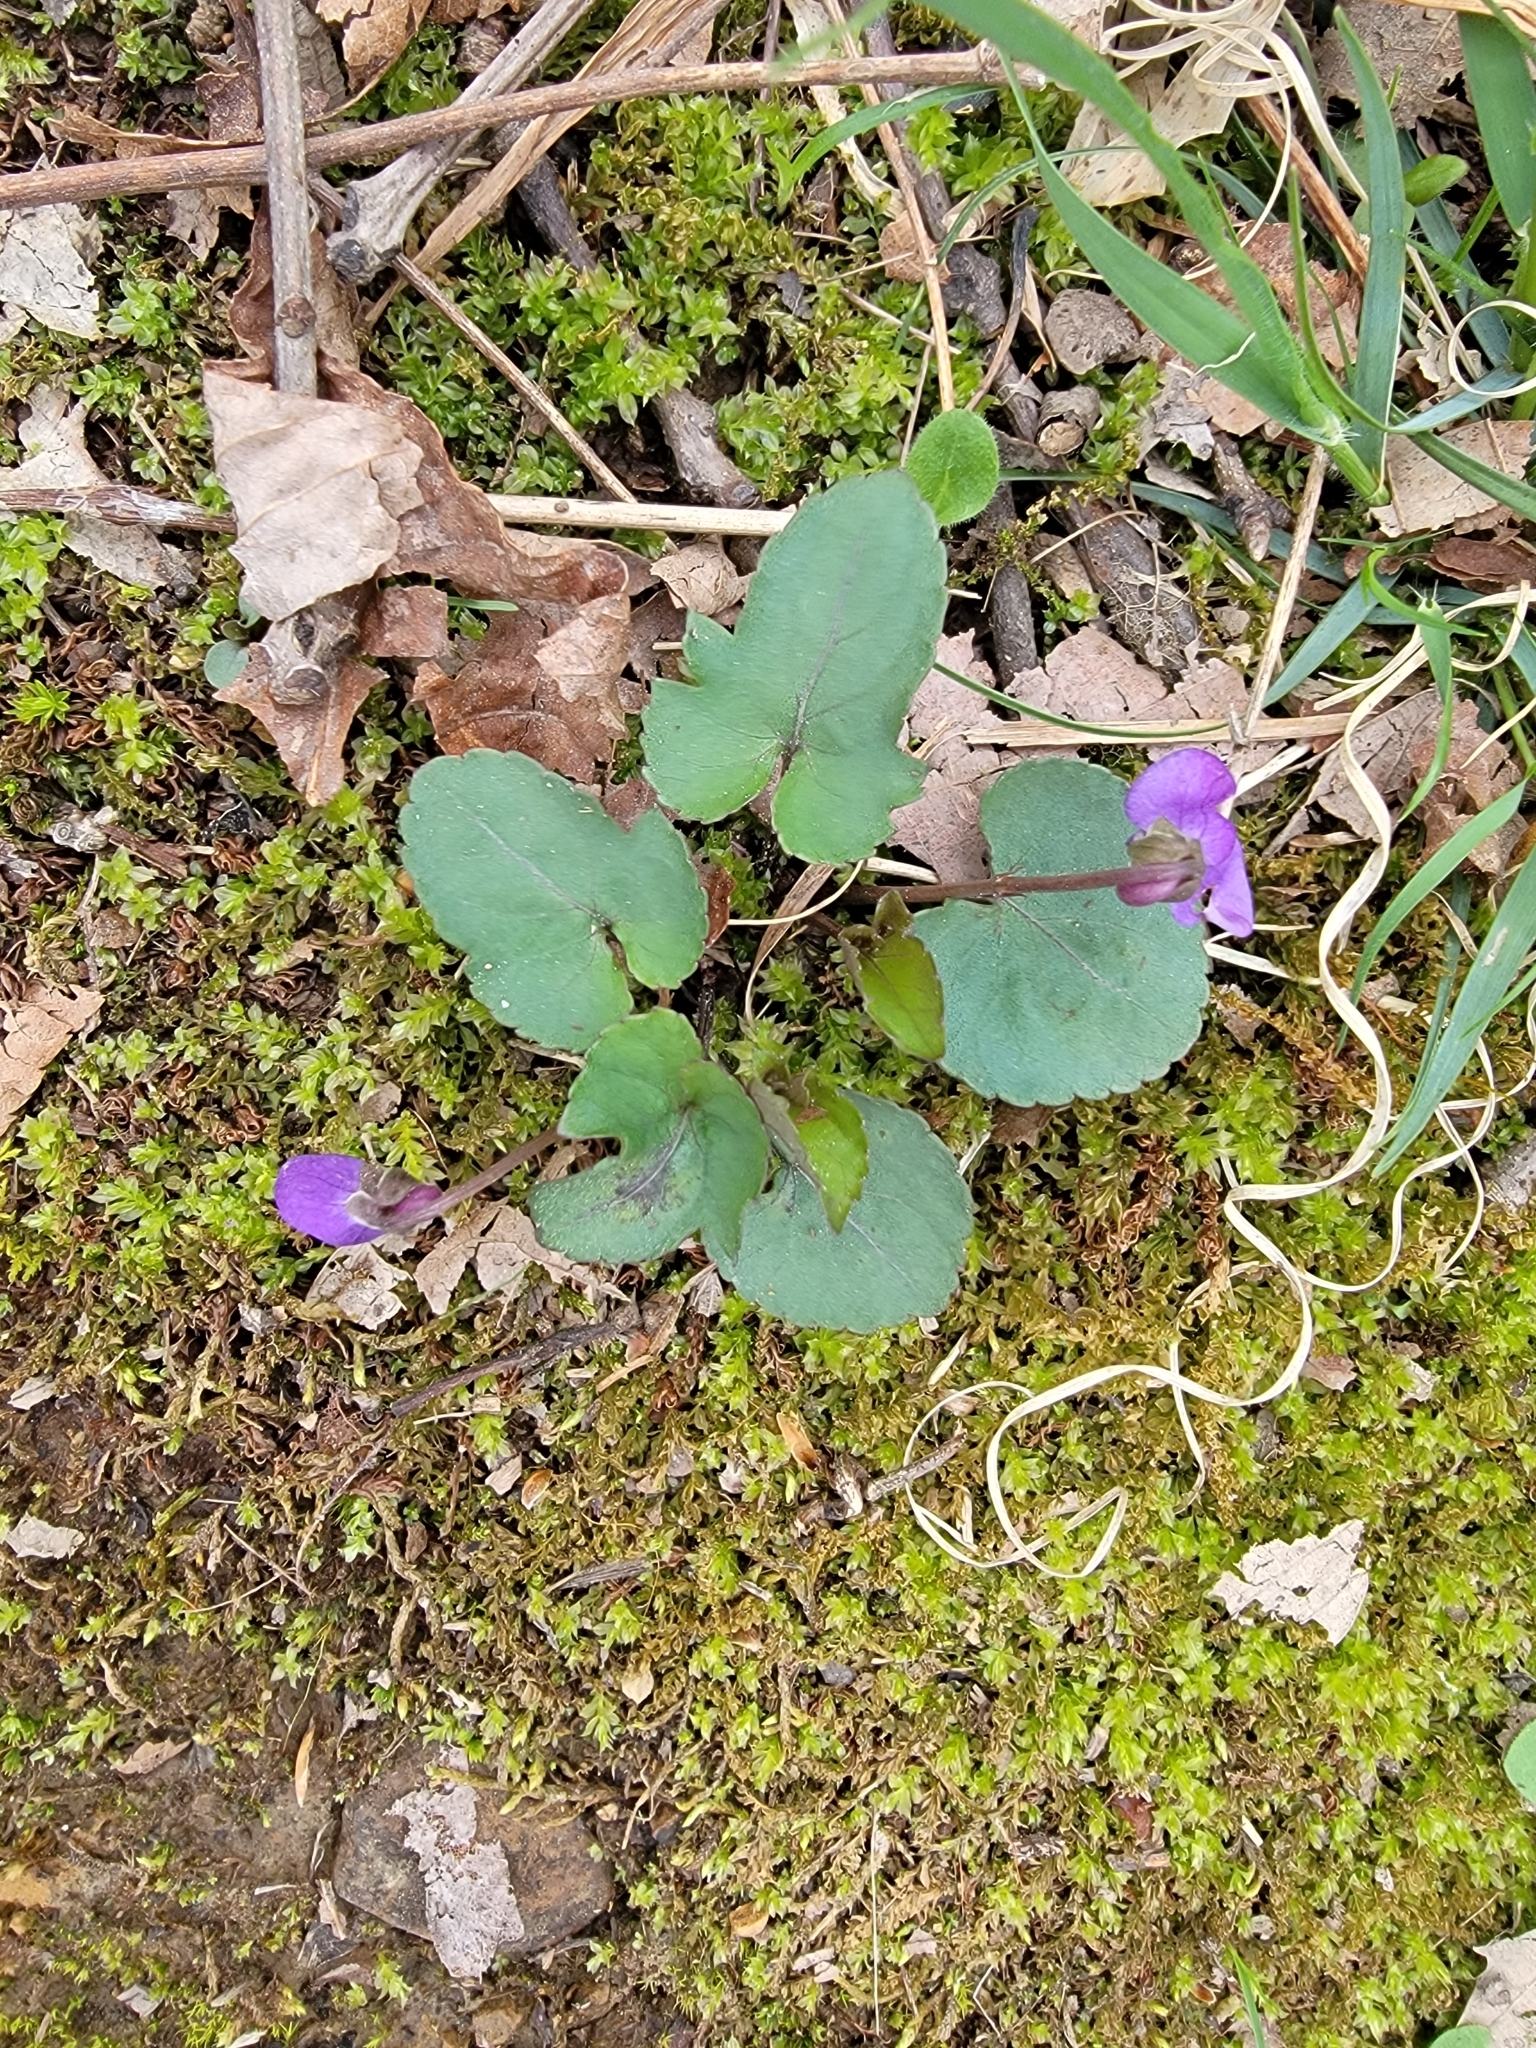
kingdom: Plantae
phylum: Tracheophyta
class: Magnoliopsida
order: Malpighiales
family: Violaceae
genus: Viola
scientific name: Viola palmata
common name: Early blue violet
